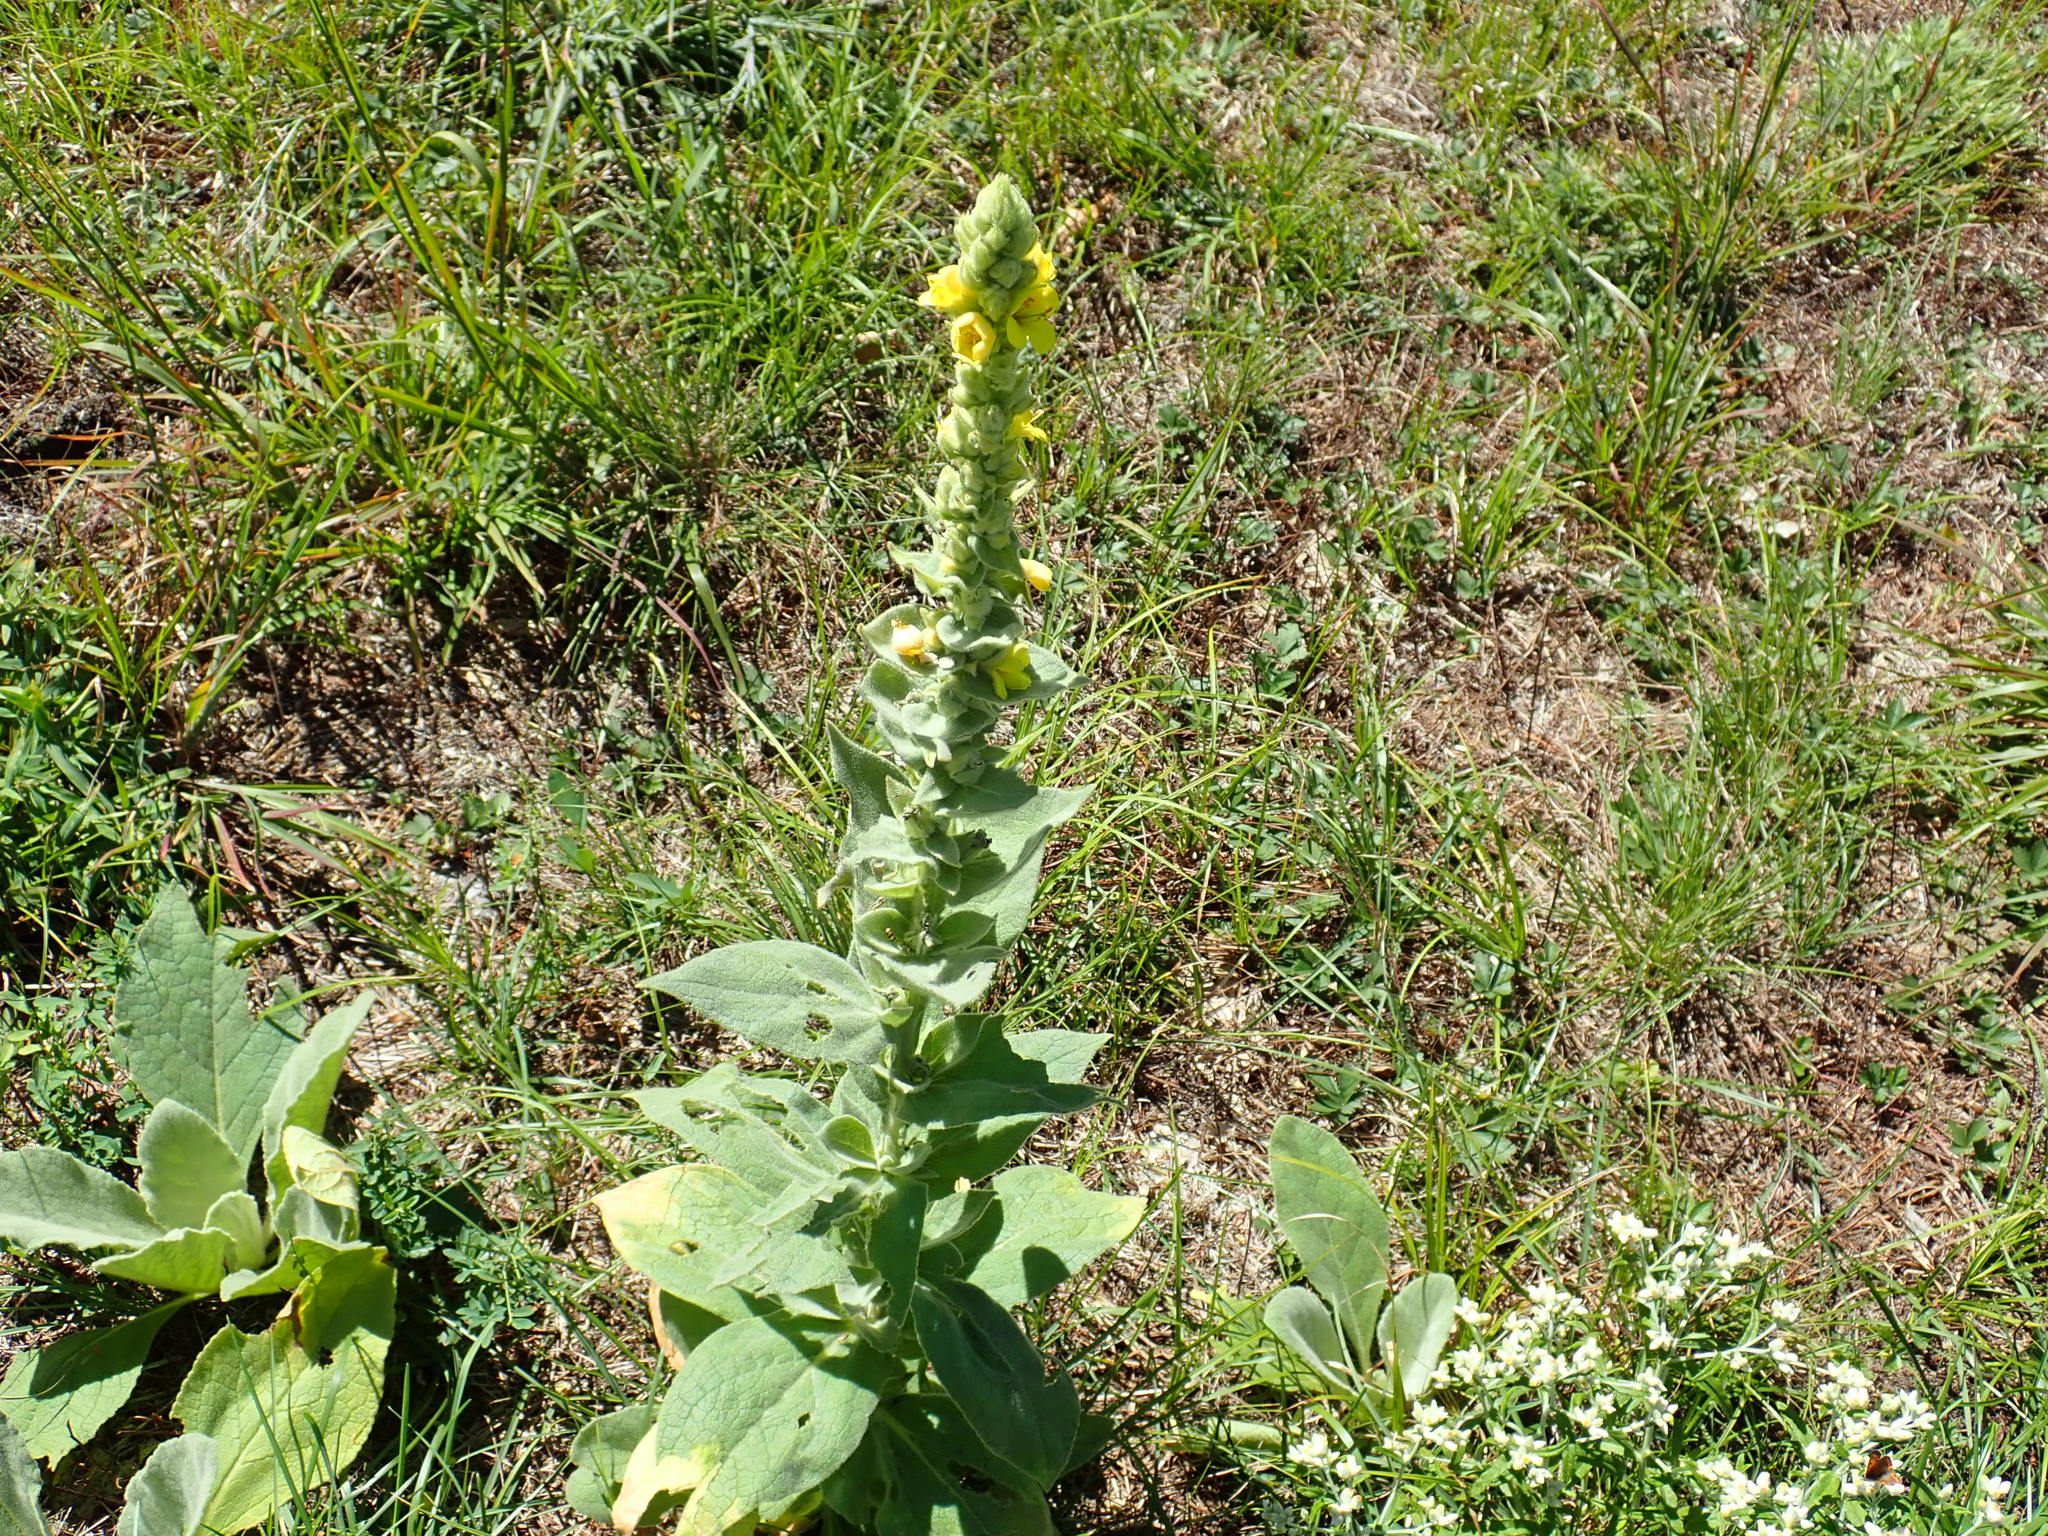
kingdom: Plantae
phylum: Tracheophyta
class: Magnoliopsida
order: Lamiales
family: Scrophulariaceae
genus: Verbascum
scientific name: Verbascum thapsus
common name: Common mullein
